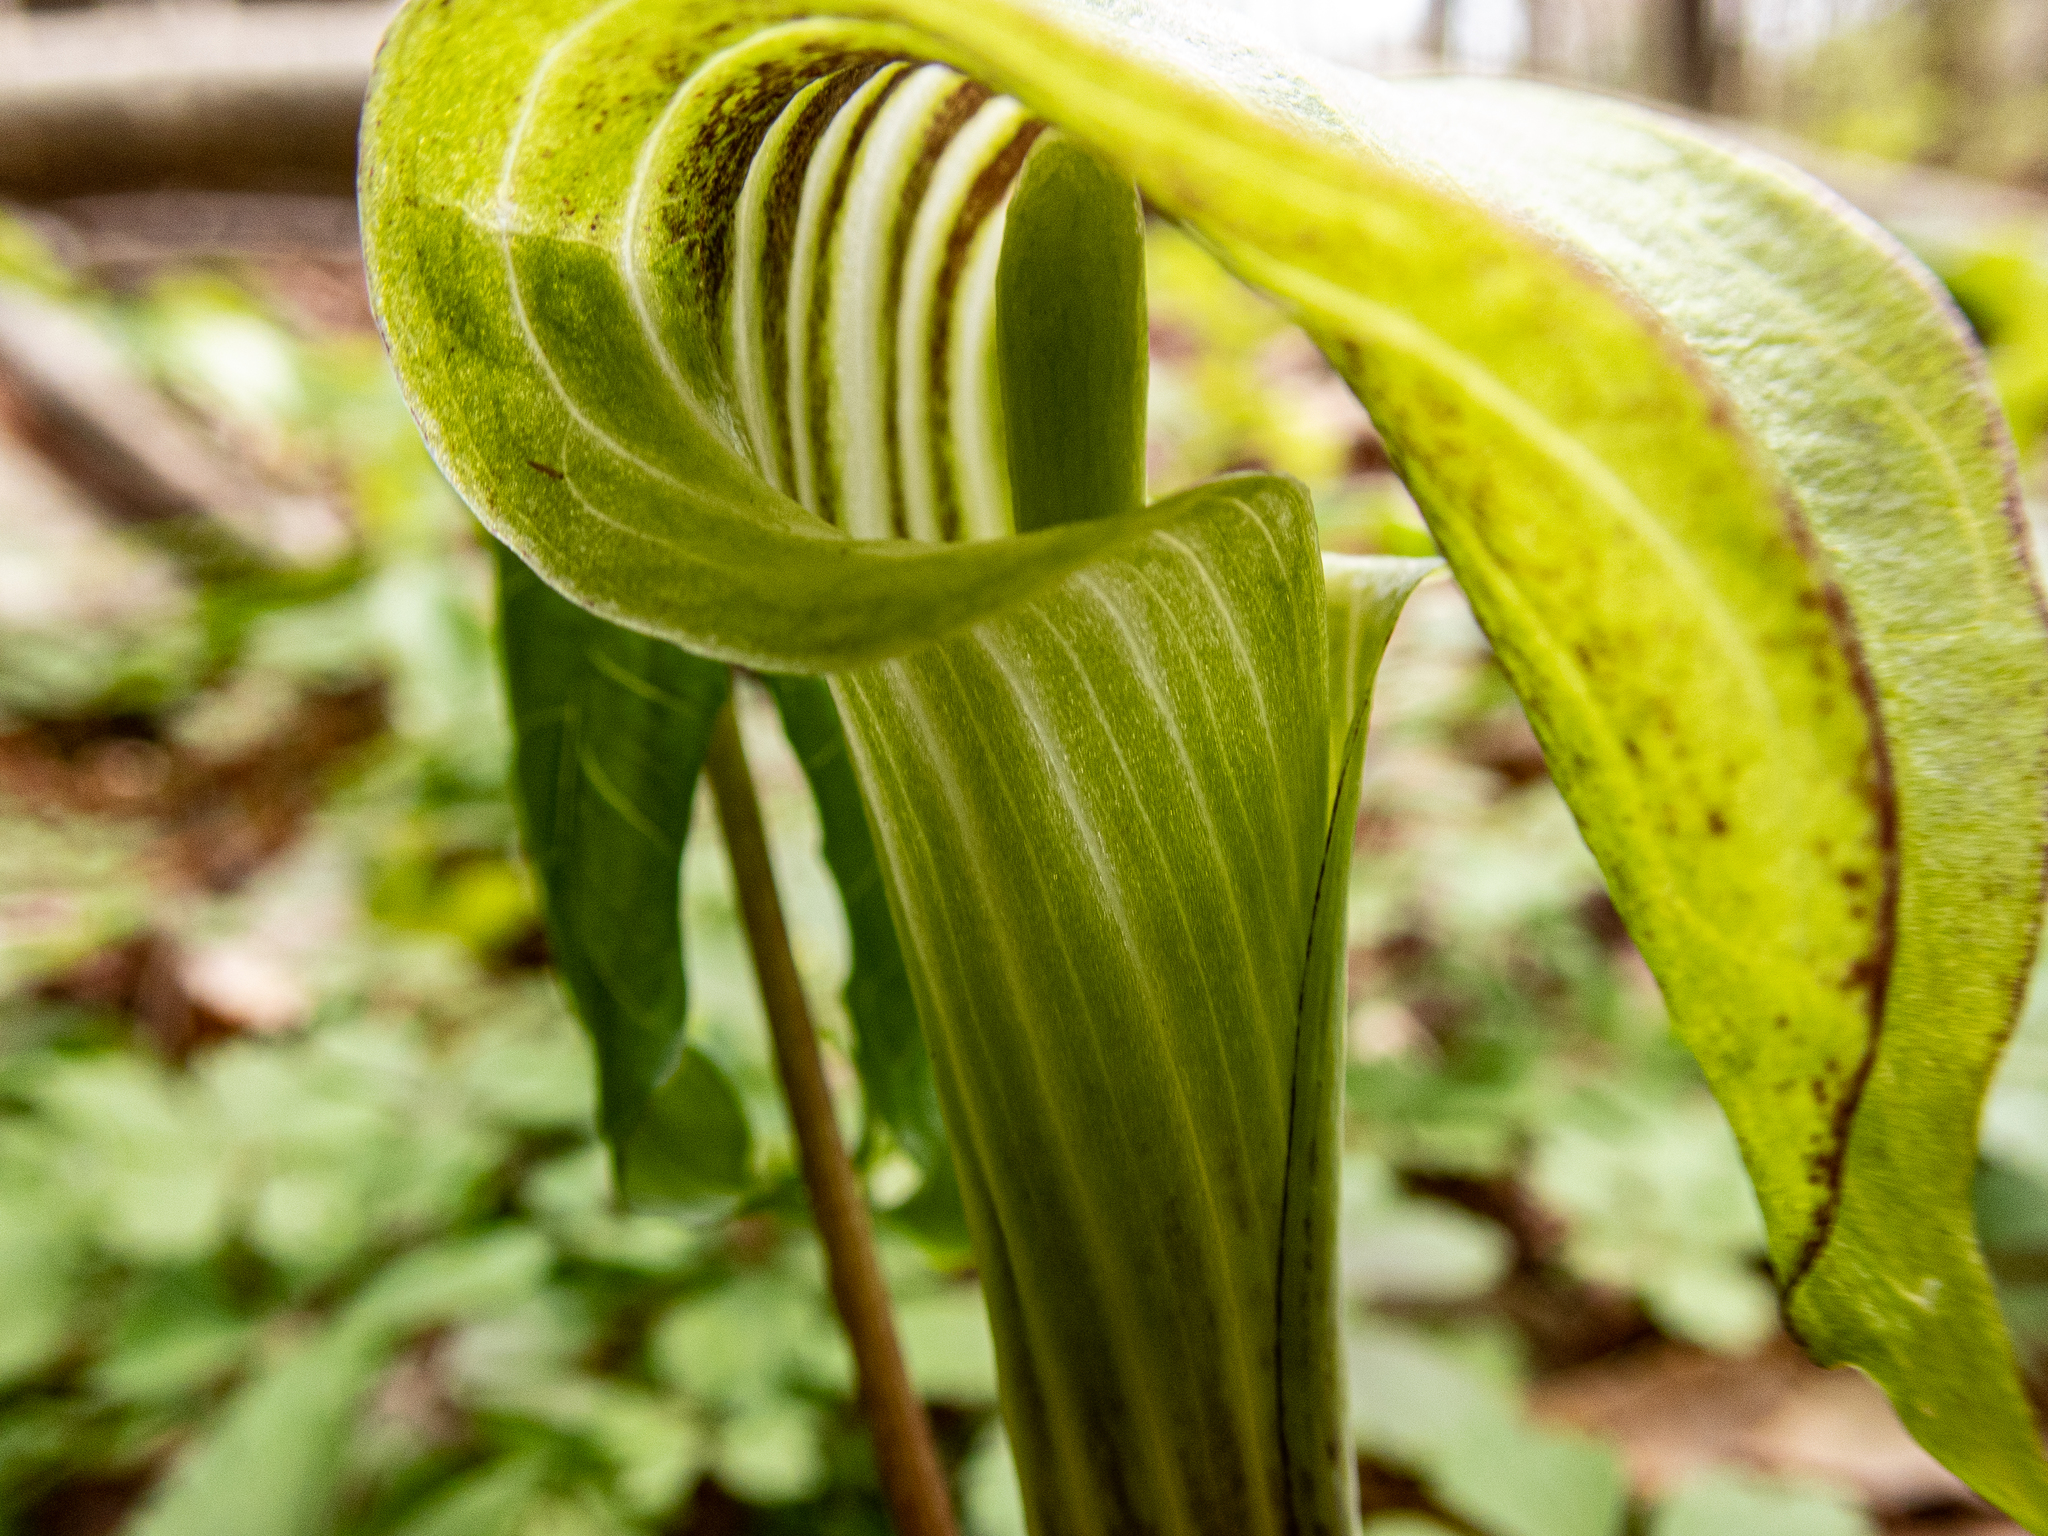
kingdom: Plantae
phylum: Tracheophyta
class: Liliopsida
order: Alismatales
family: Araceae
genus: Arisaema
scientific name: Arisaema triphyllum
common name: Jack-in-the-pulpit
